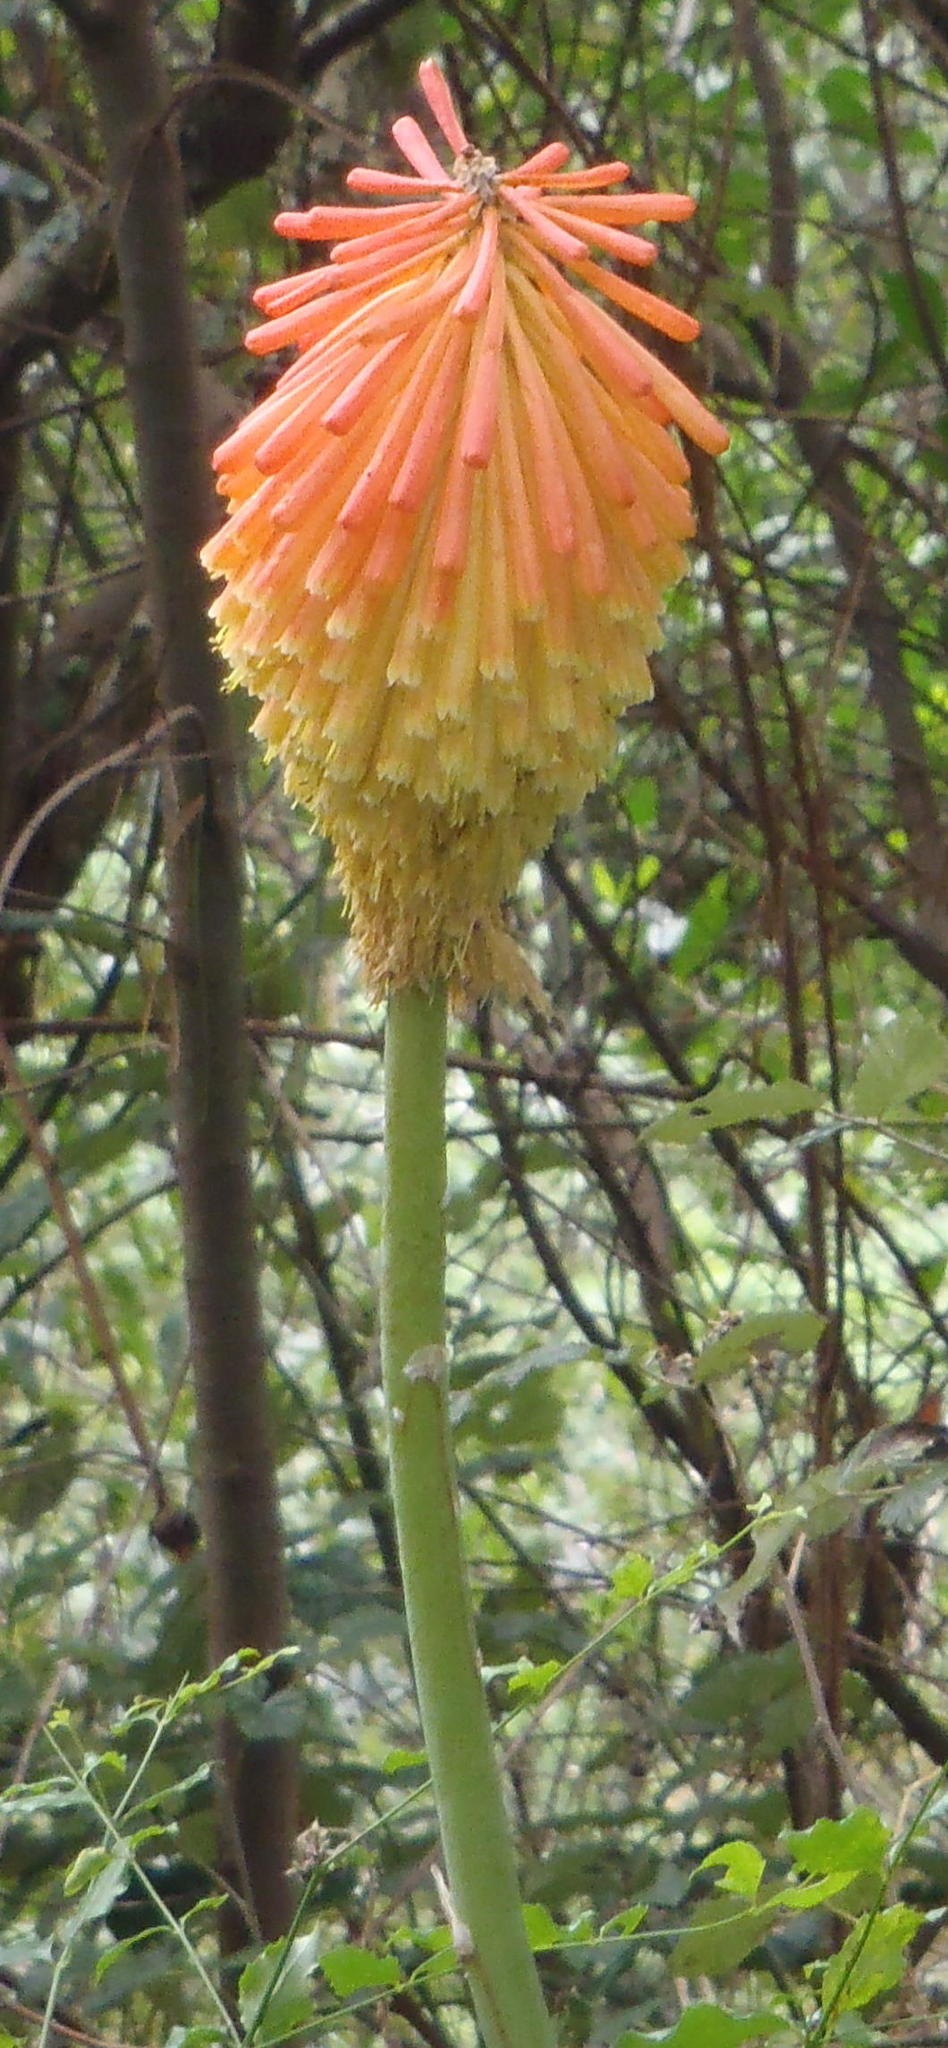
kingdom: Plantae
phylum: Tracheophyta
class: Liliopsida
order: Asparagales
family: Asphodelaceae
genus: Kniphofia
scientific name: Kniphofia uvaria
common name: Red-hot-poker
